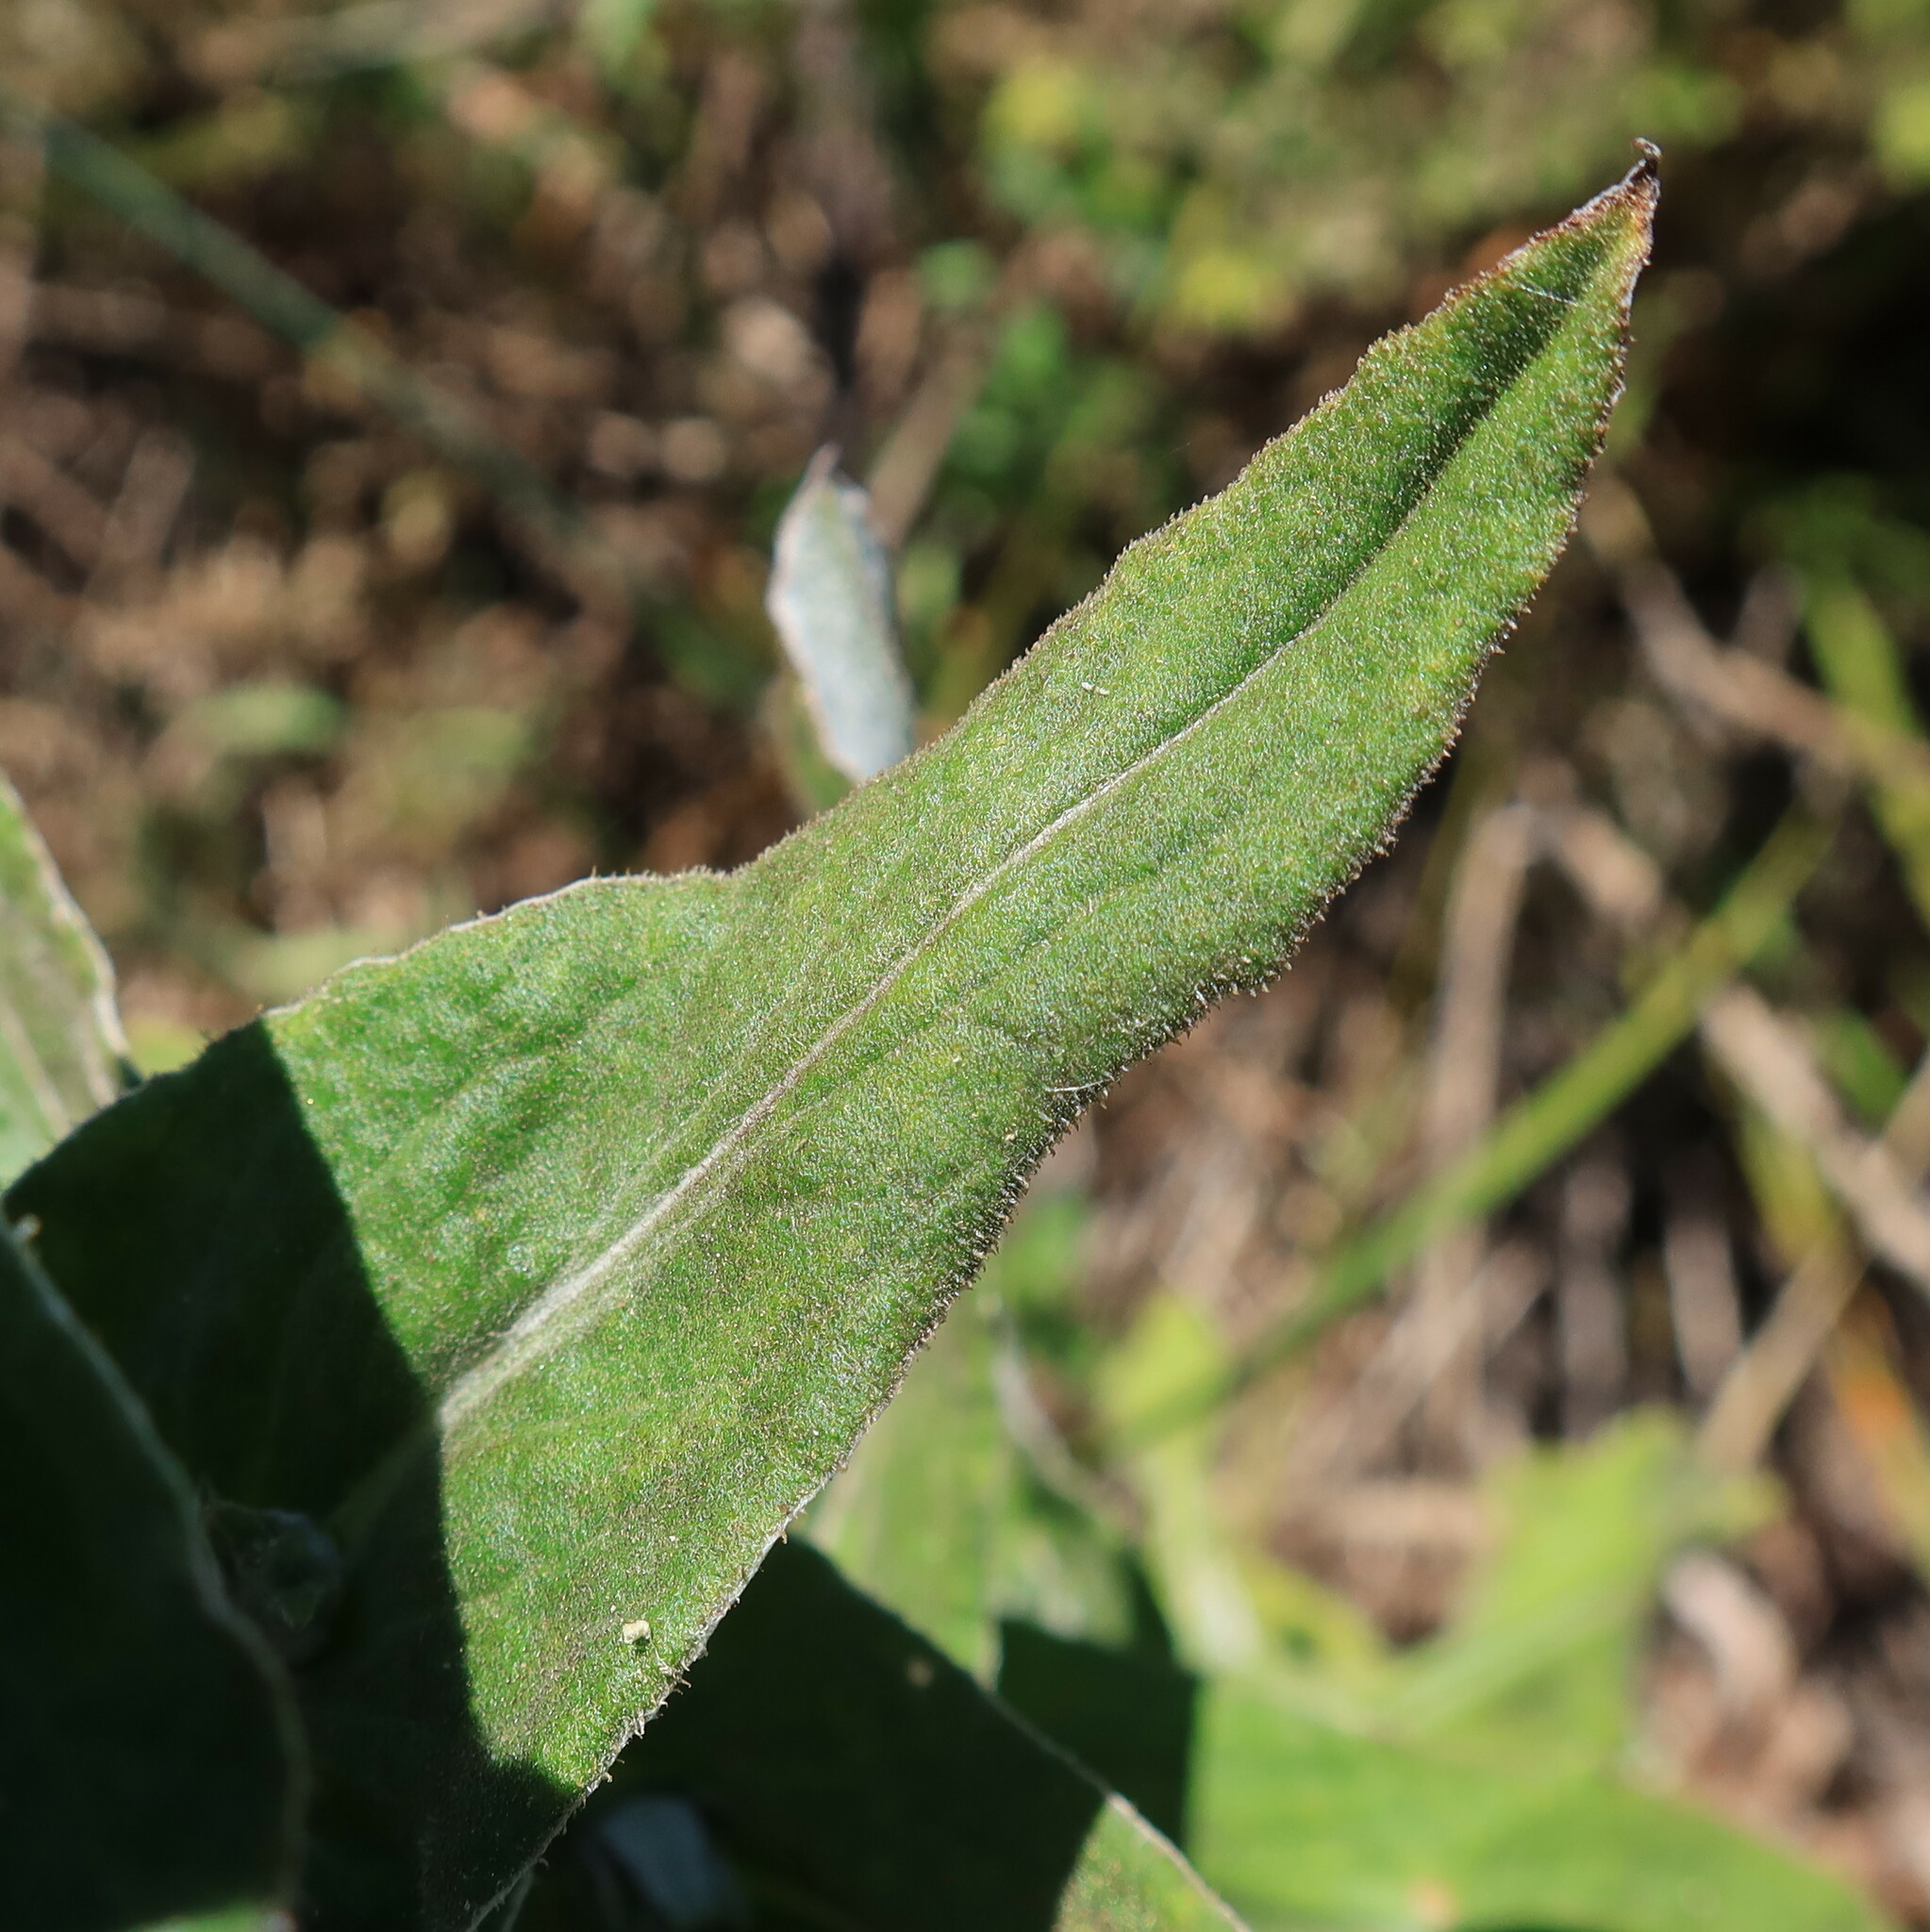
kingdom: Plantae
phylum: Tracheophyta
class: Magnoliopsida
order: Asterales
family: Asteraceae
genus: Helichrysum
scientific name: Helichrysum foetidum
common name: Stinking everlasting
